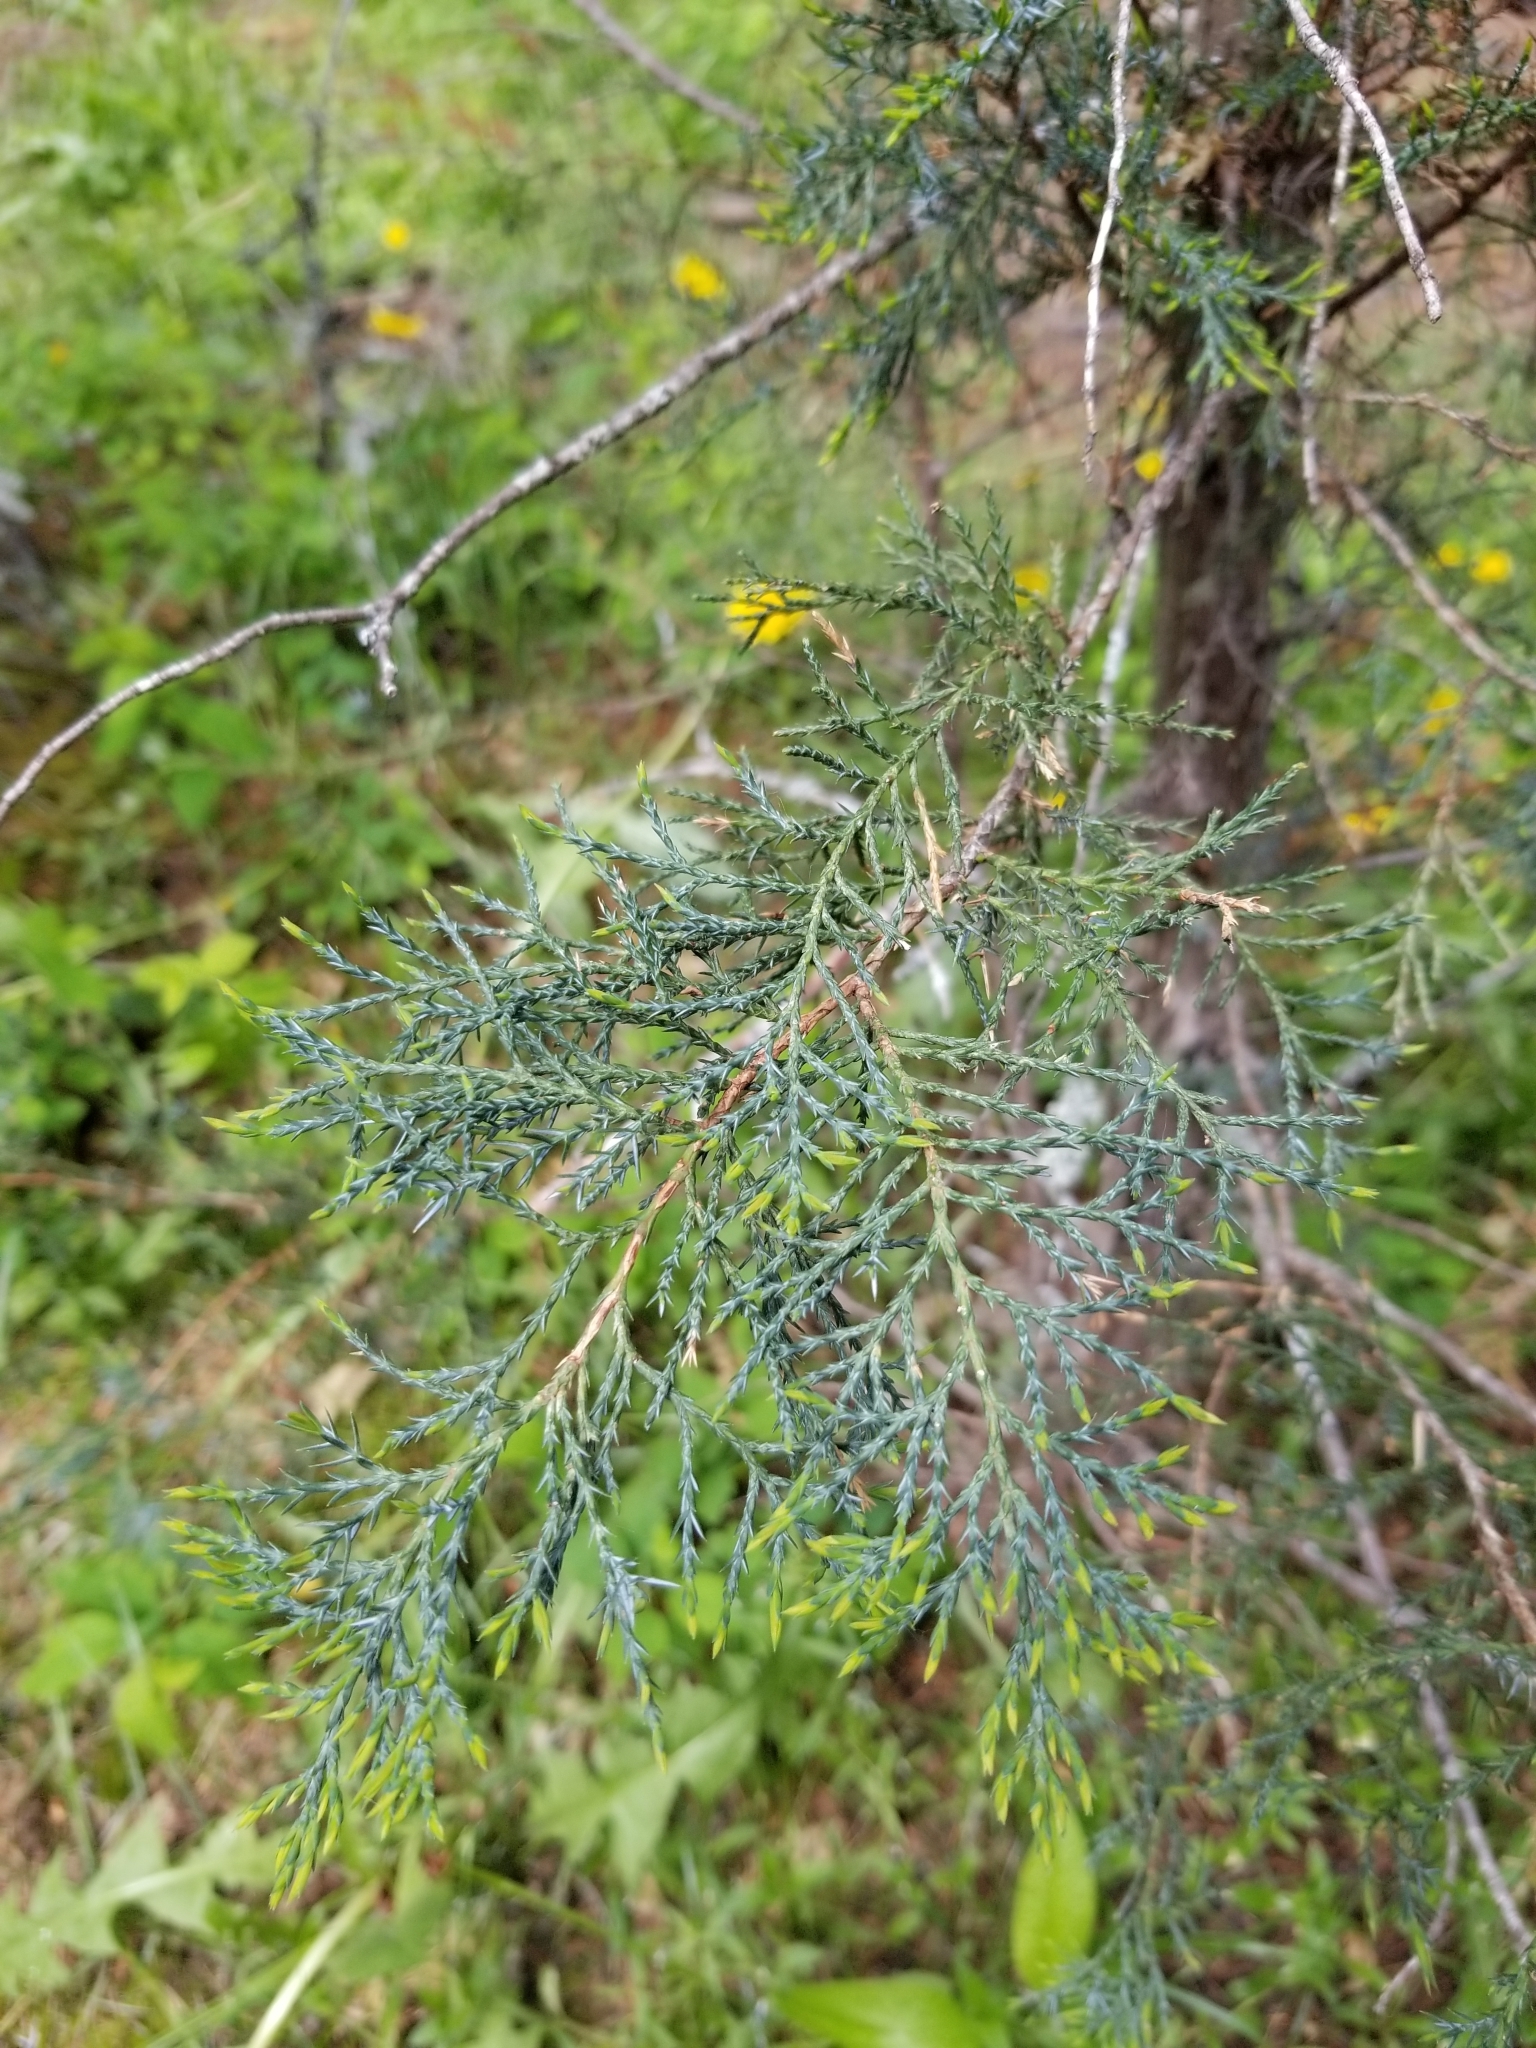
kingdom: Plantae
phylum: Tracheophyta
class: Pinopsida
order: Pinales
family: Cupressaceae
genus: Juniperus
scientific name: Juniperus scopulorum
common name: Rocky mountain juniper
